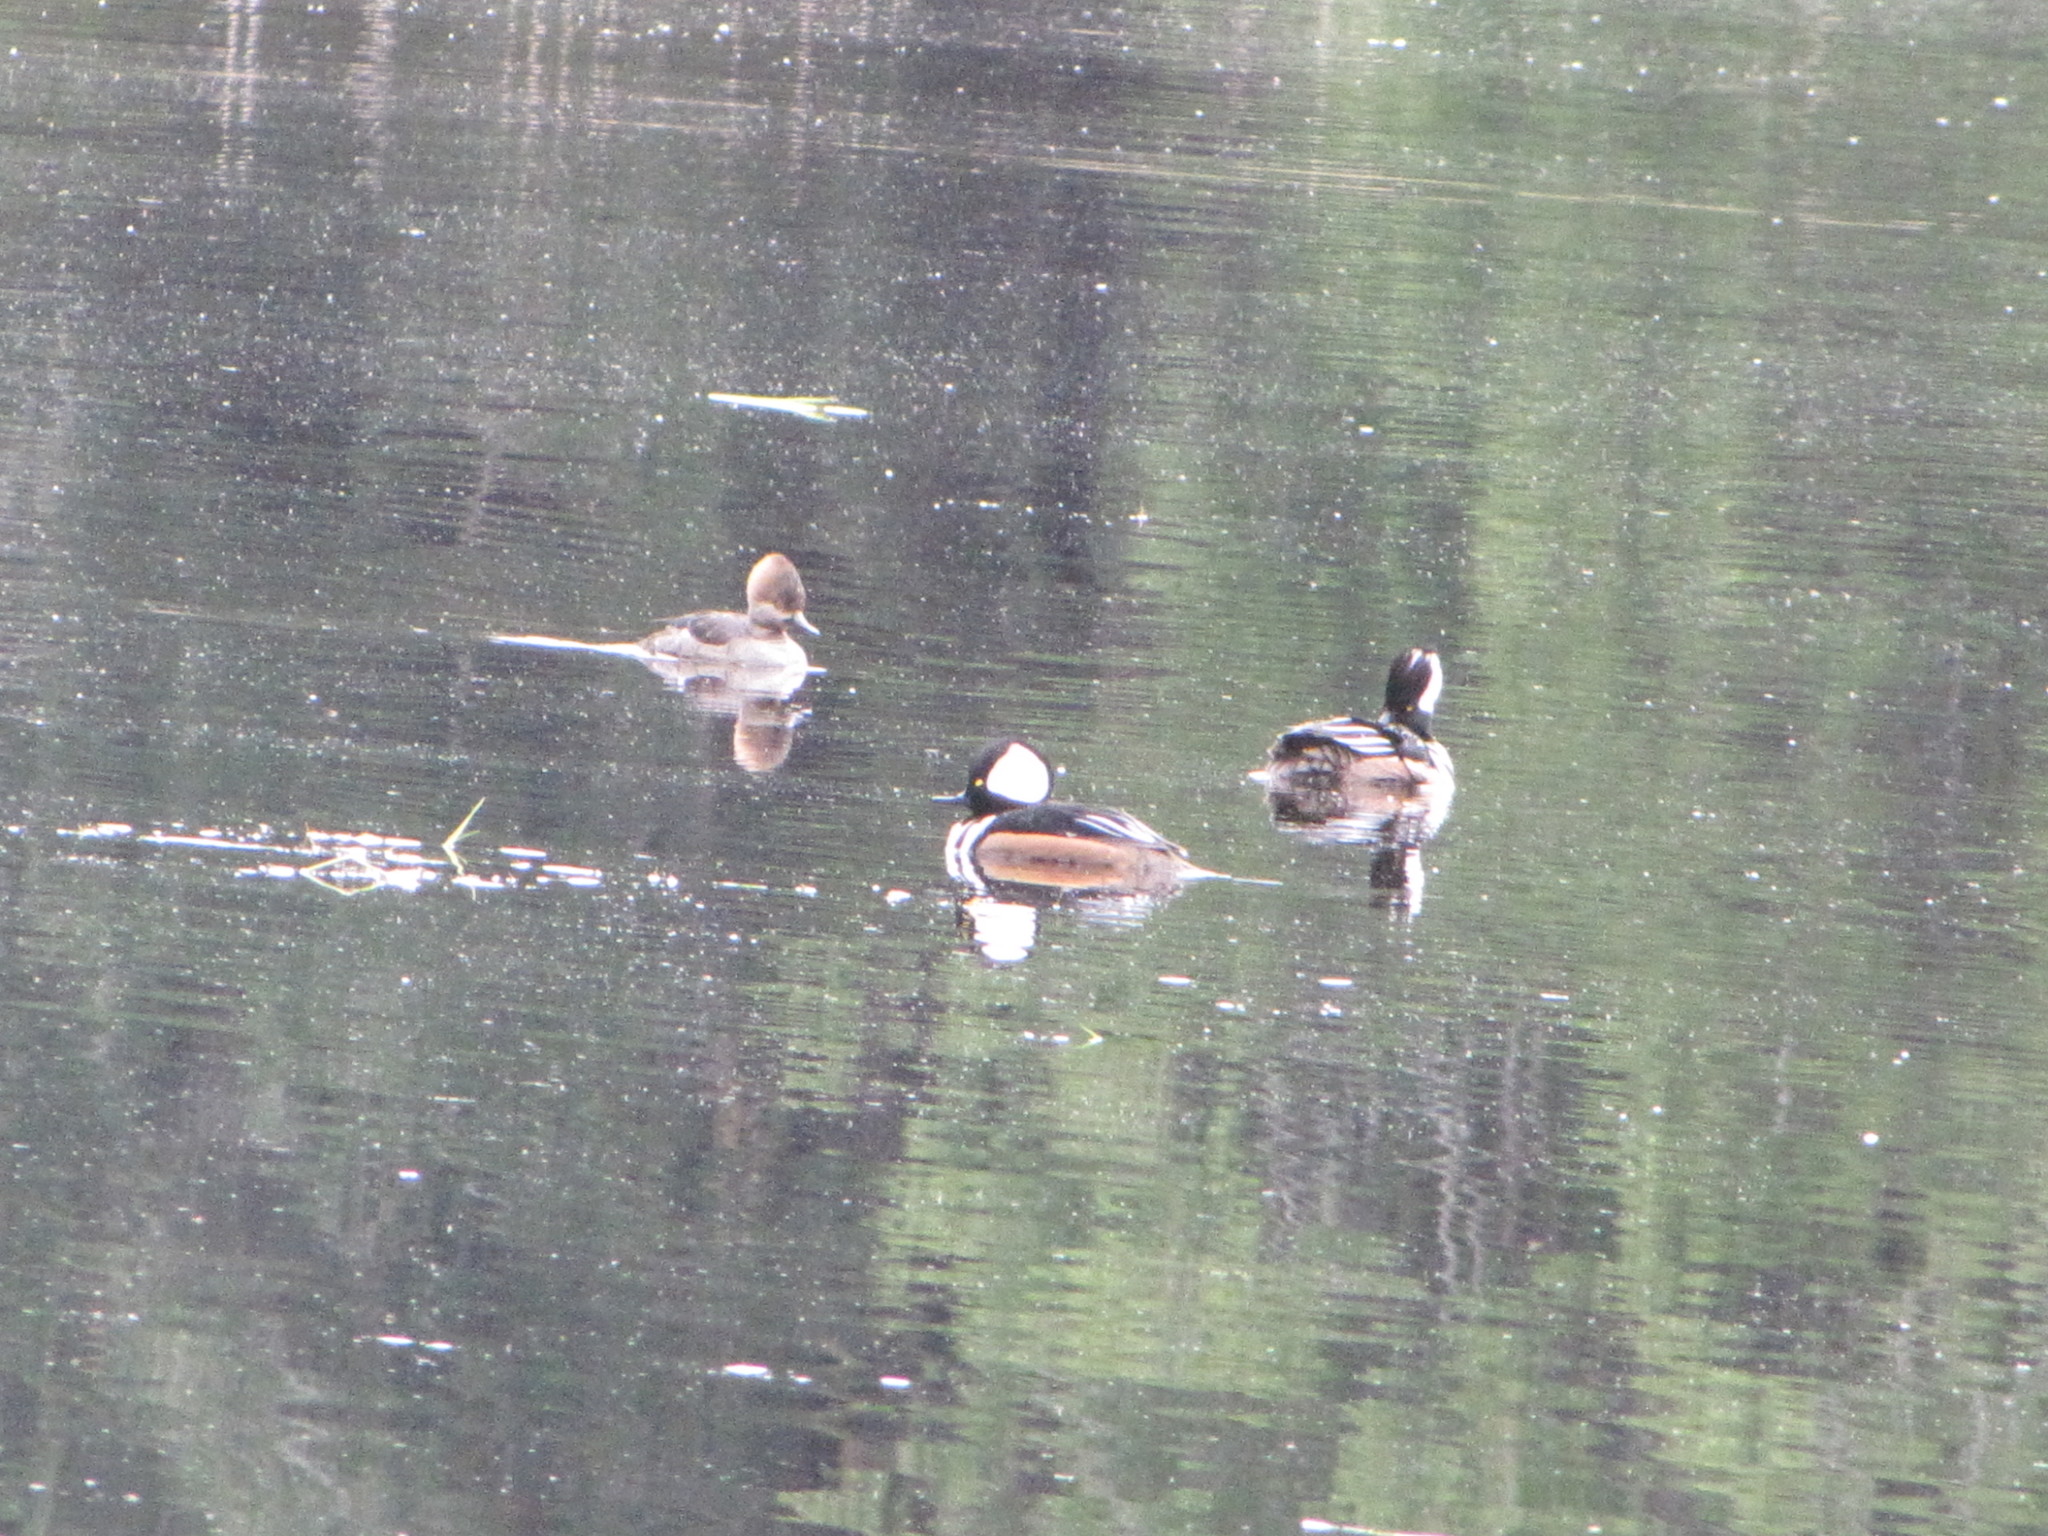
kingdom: Animalia
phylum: Chordata
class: Aves
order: Anseriformes
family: Anatidae
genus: Lophodytes
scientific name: Lophodytes cucullatus
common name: Hooded merganser
